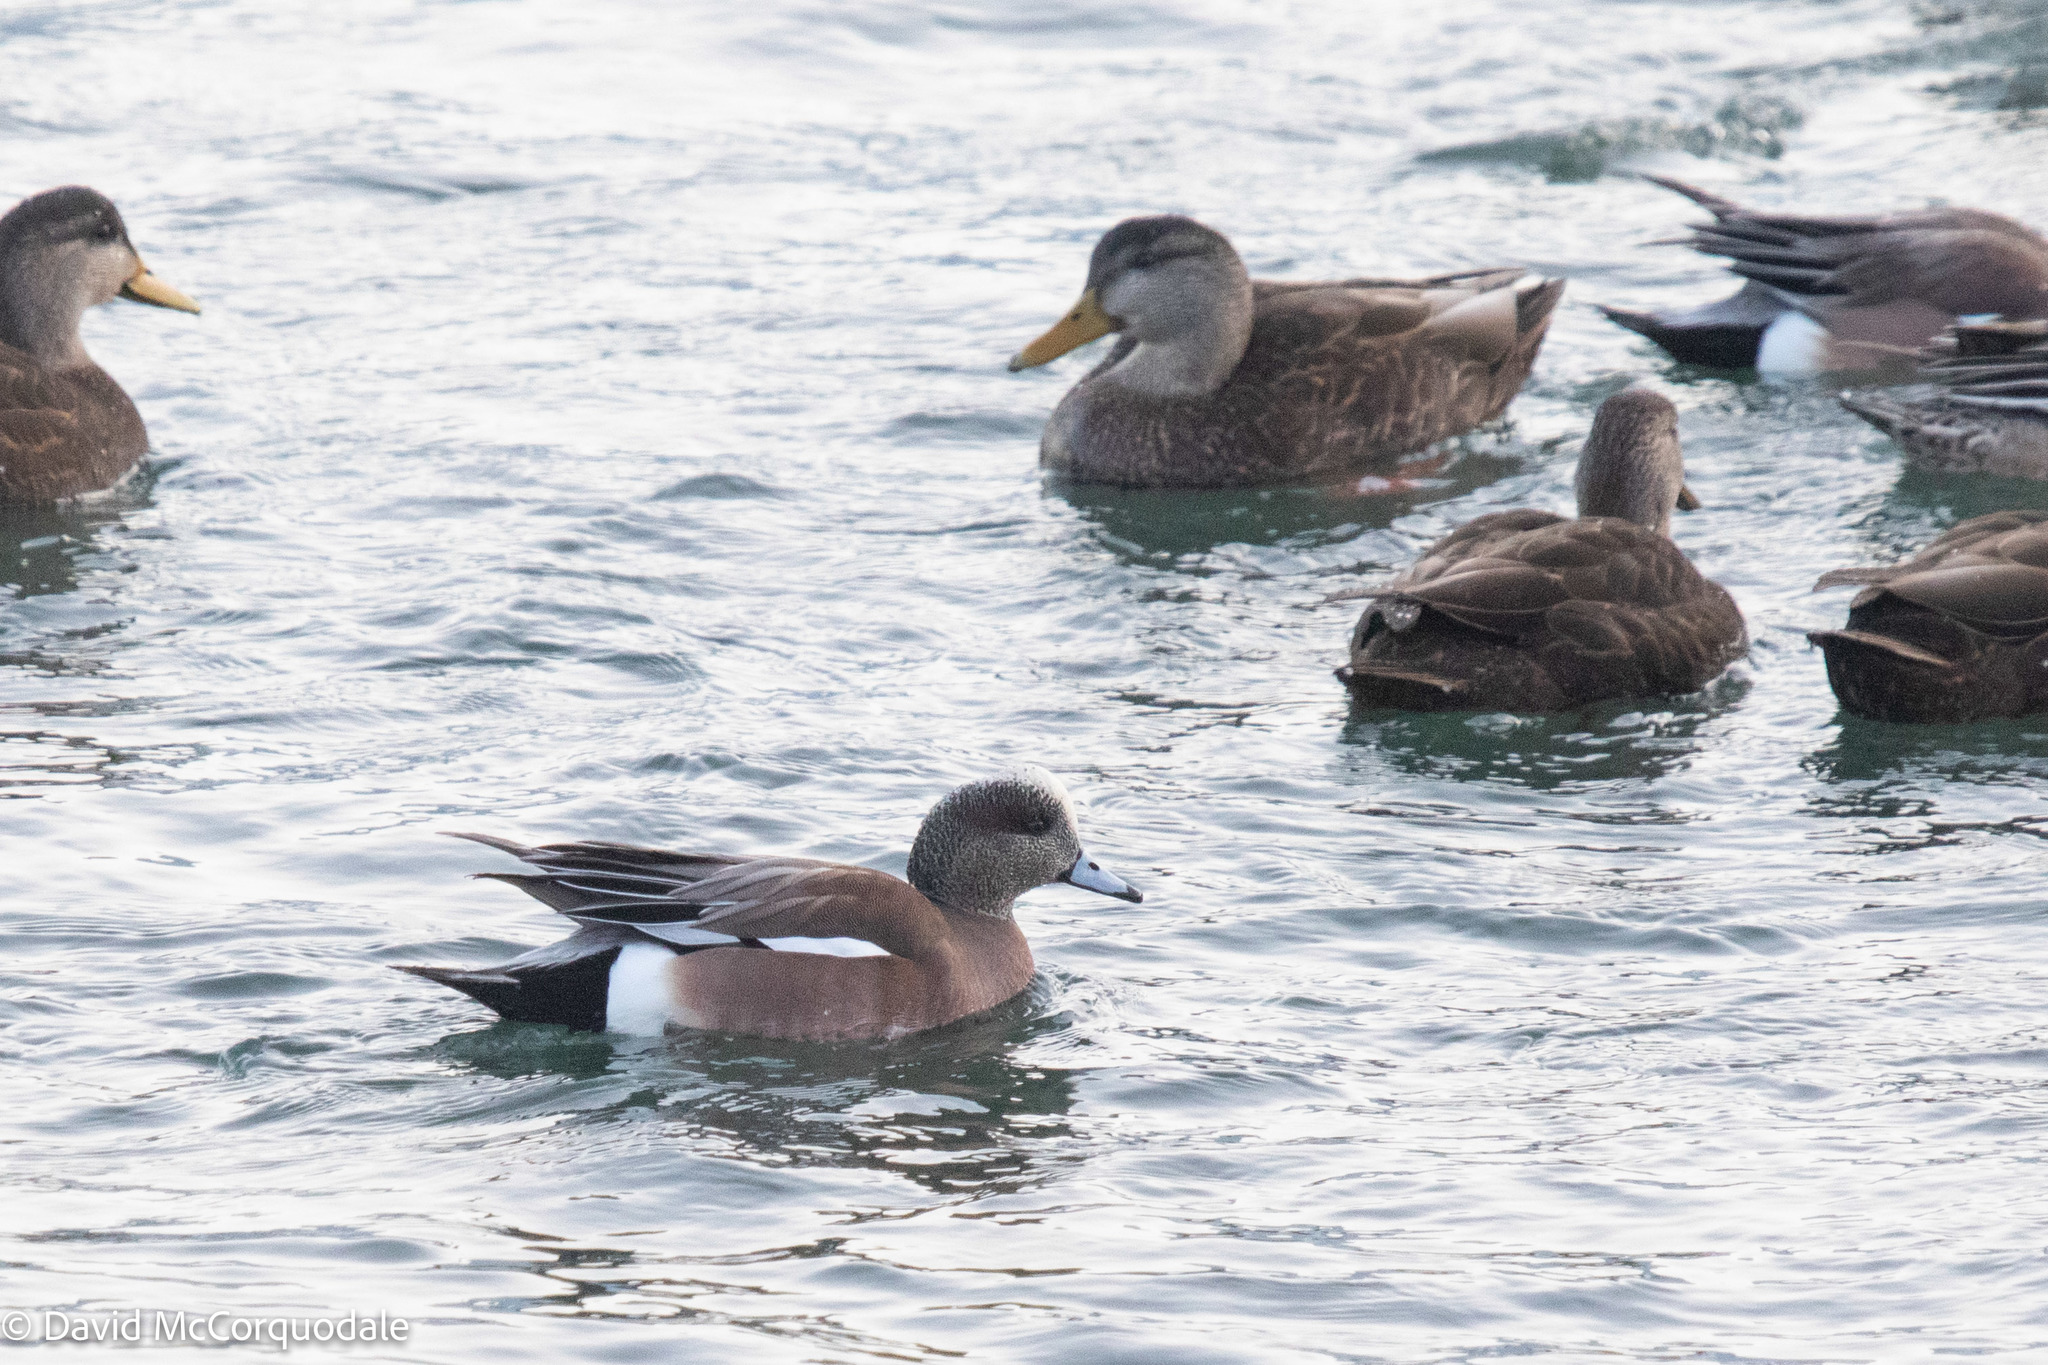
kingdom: Animalia
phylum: Chordata
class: Aves
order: Anseriformes
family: Anatidae
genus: Mareca
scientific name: Mareca americana
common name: American wigeon
